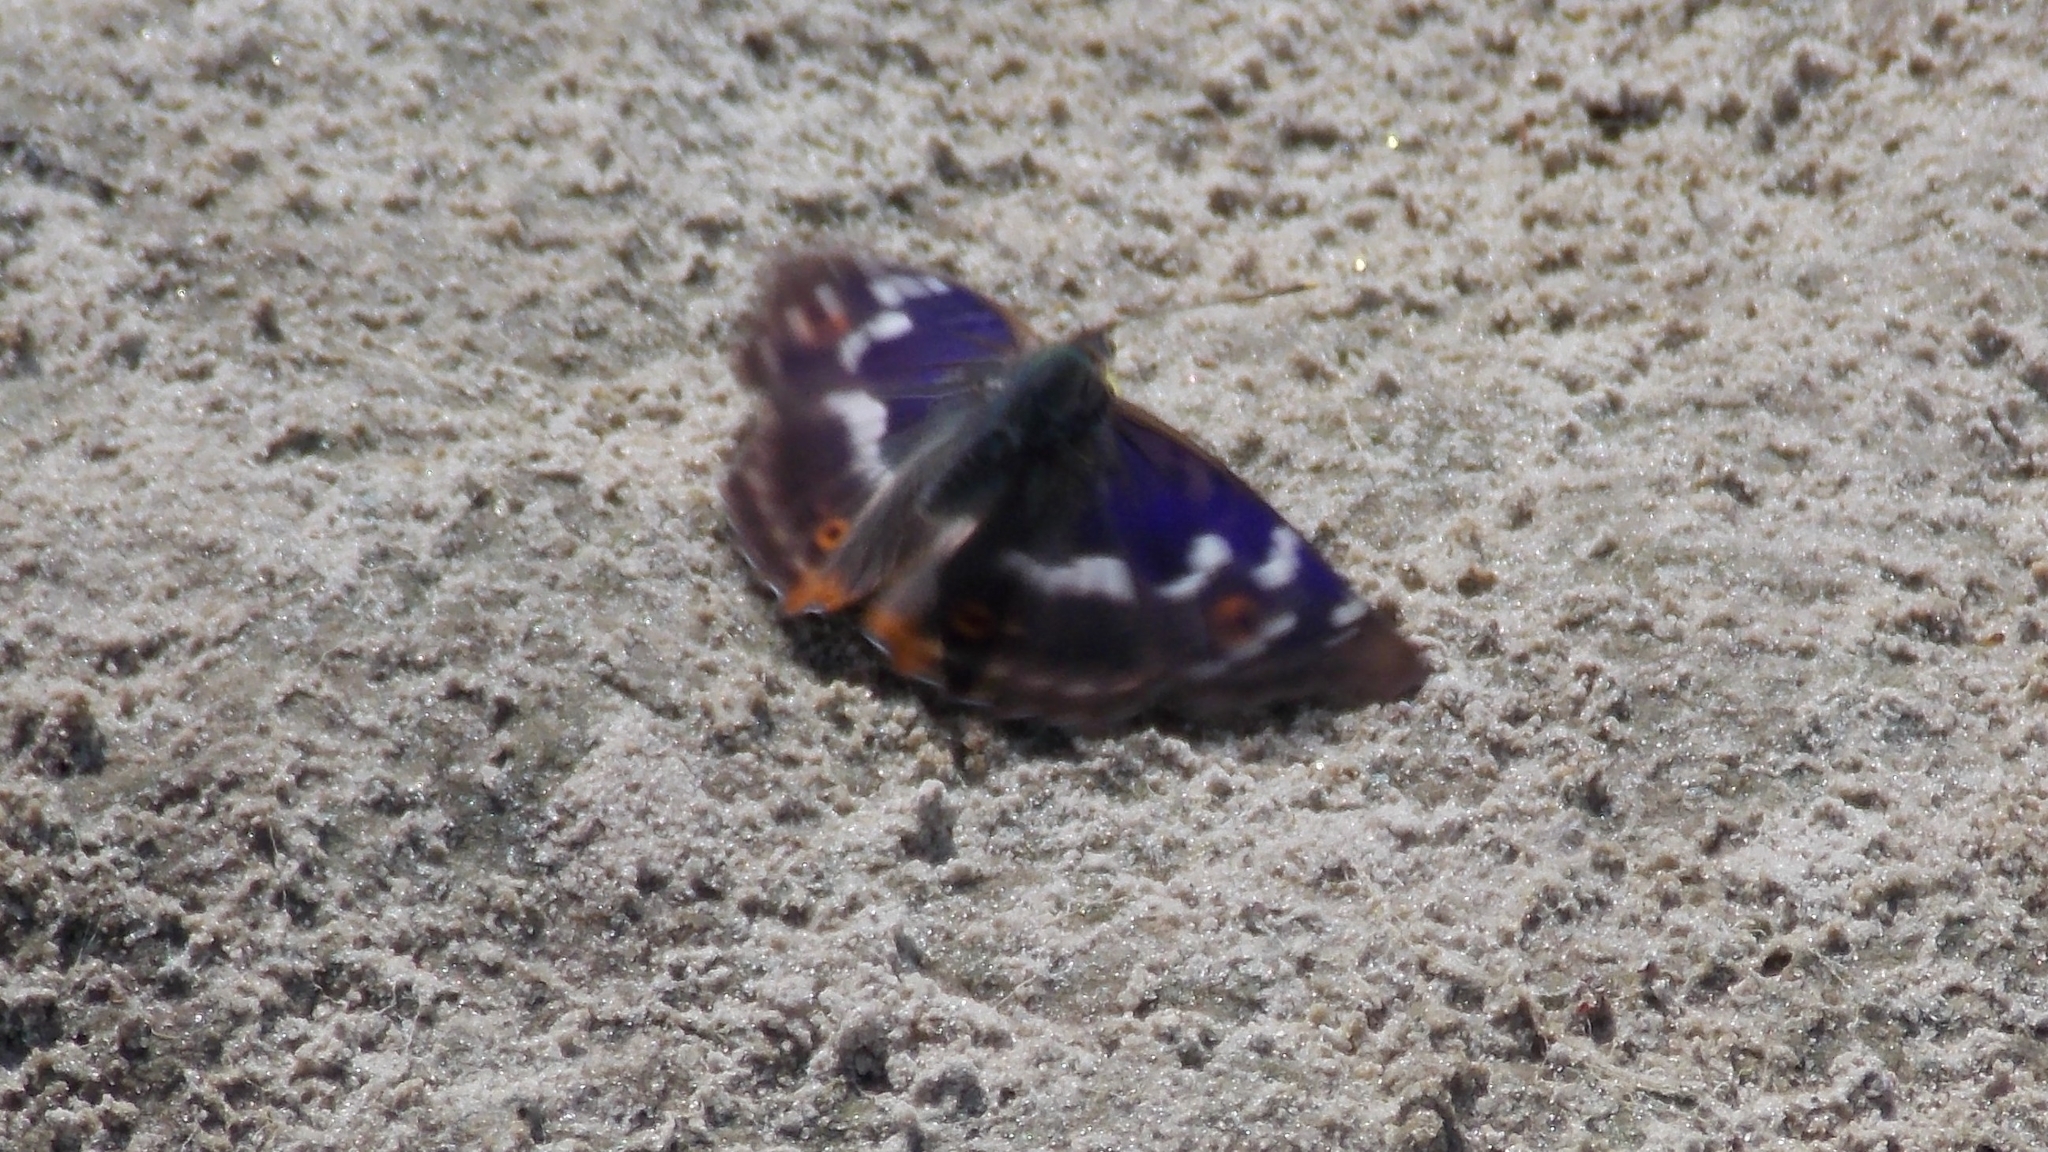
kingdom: Animalia
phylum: Arthropoda
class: Insecta
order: Lepidoptera
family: Nymphalidae
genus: Apatura
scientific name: Apatura ilia
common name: Lesser purple emperor
